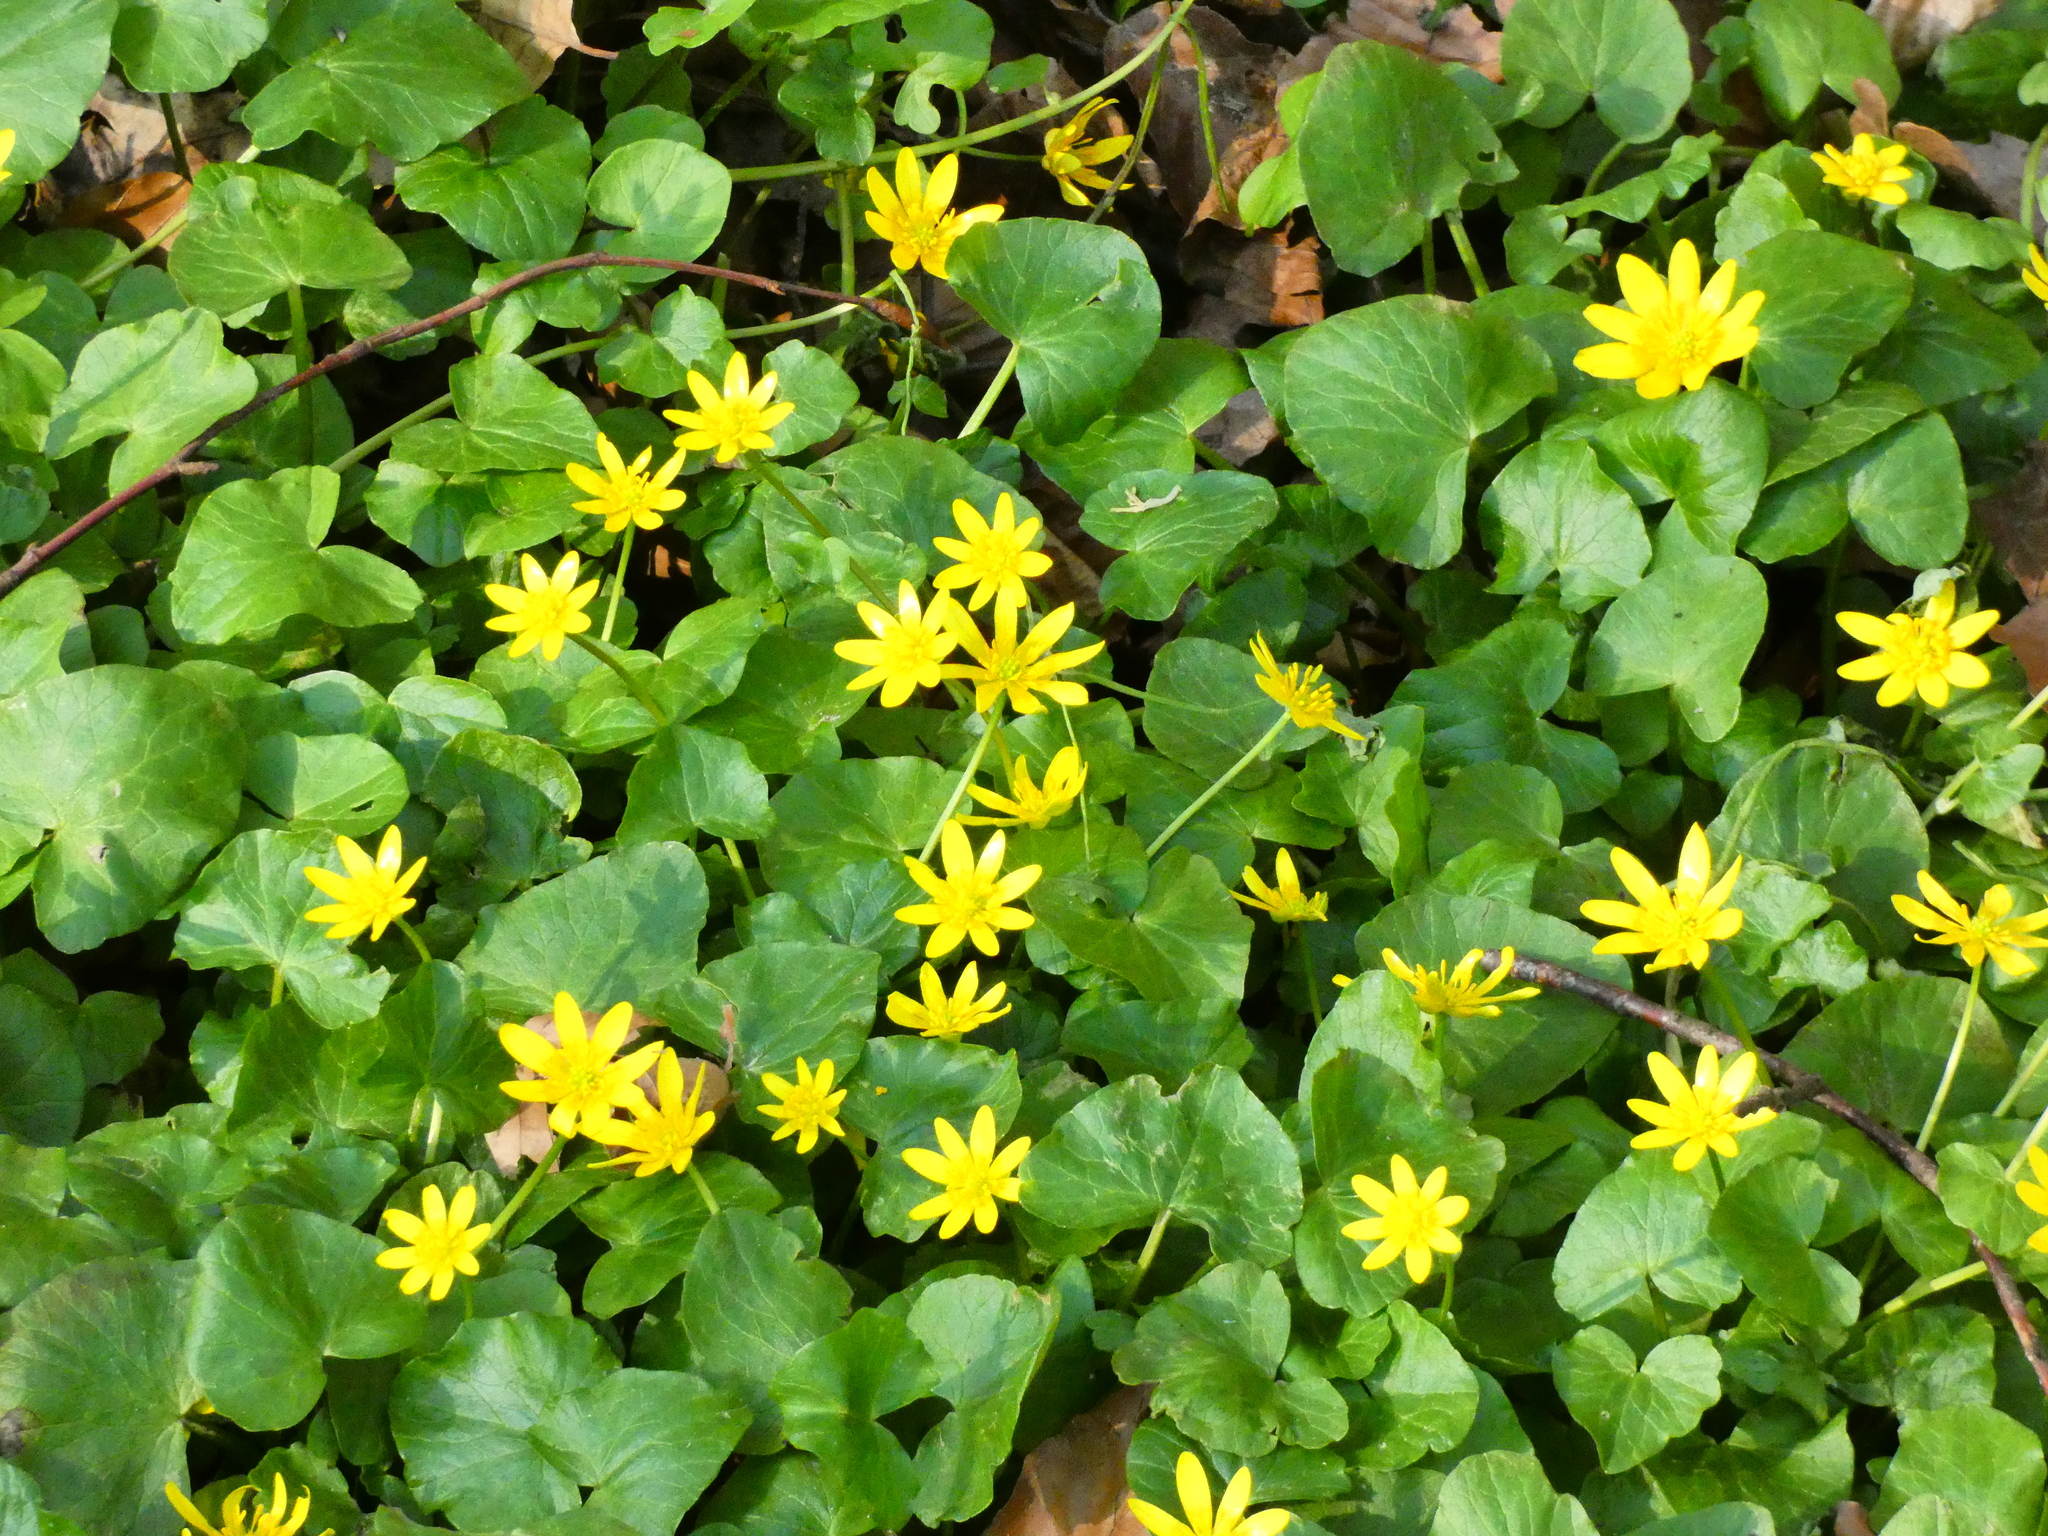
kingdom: Plantae
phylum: Tracheophyta
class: Magnoliopsida
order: Ranunculales
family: Ranunculaceae
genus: Ficaria
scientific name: Ficaria verna
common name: Lesser celandine
